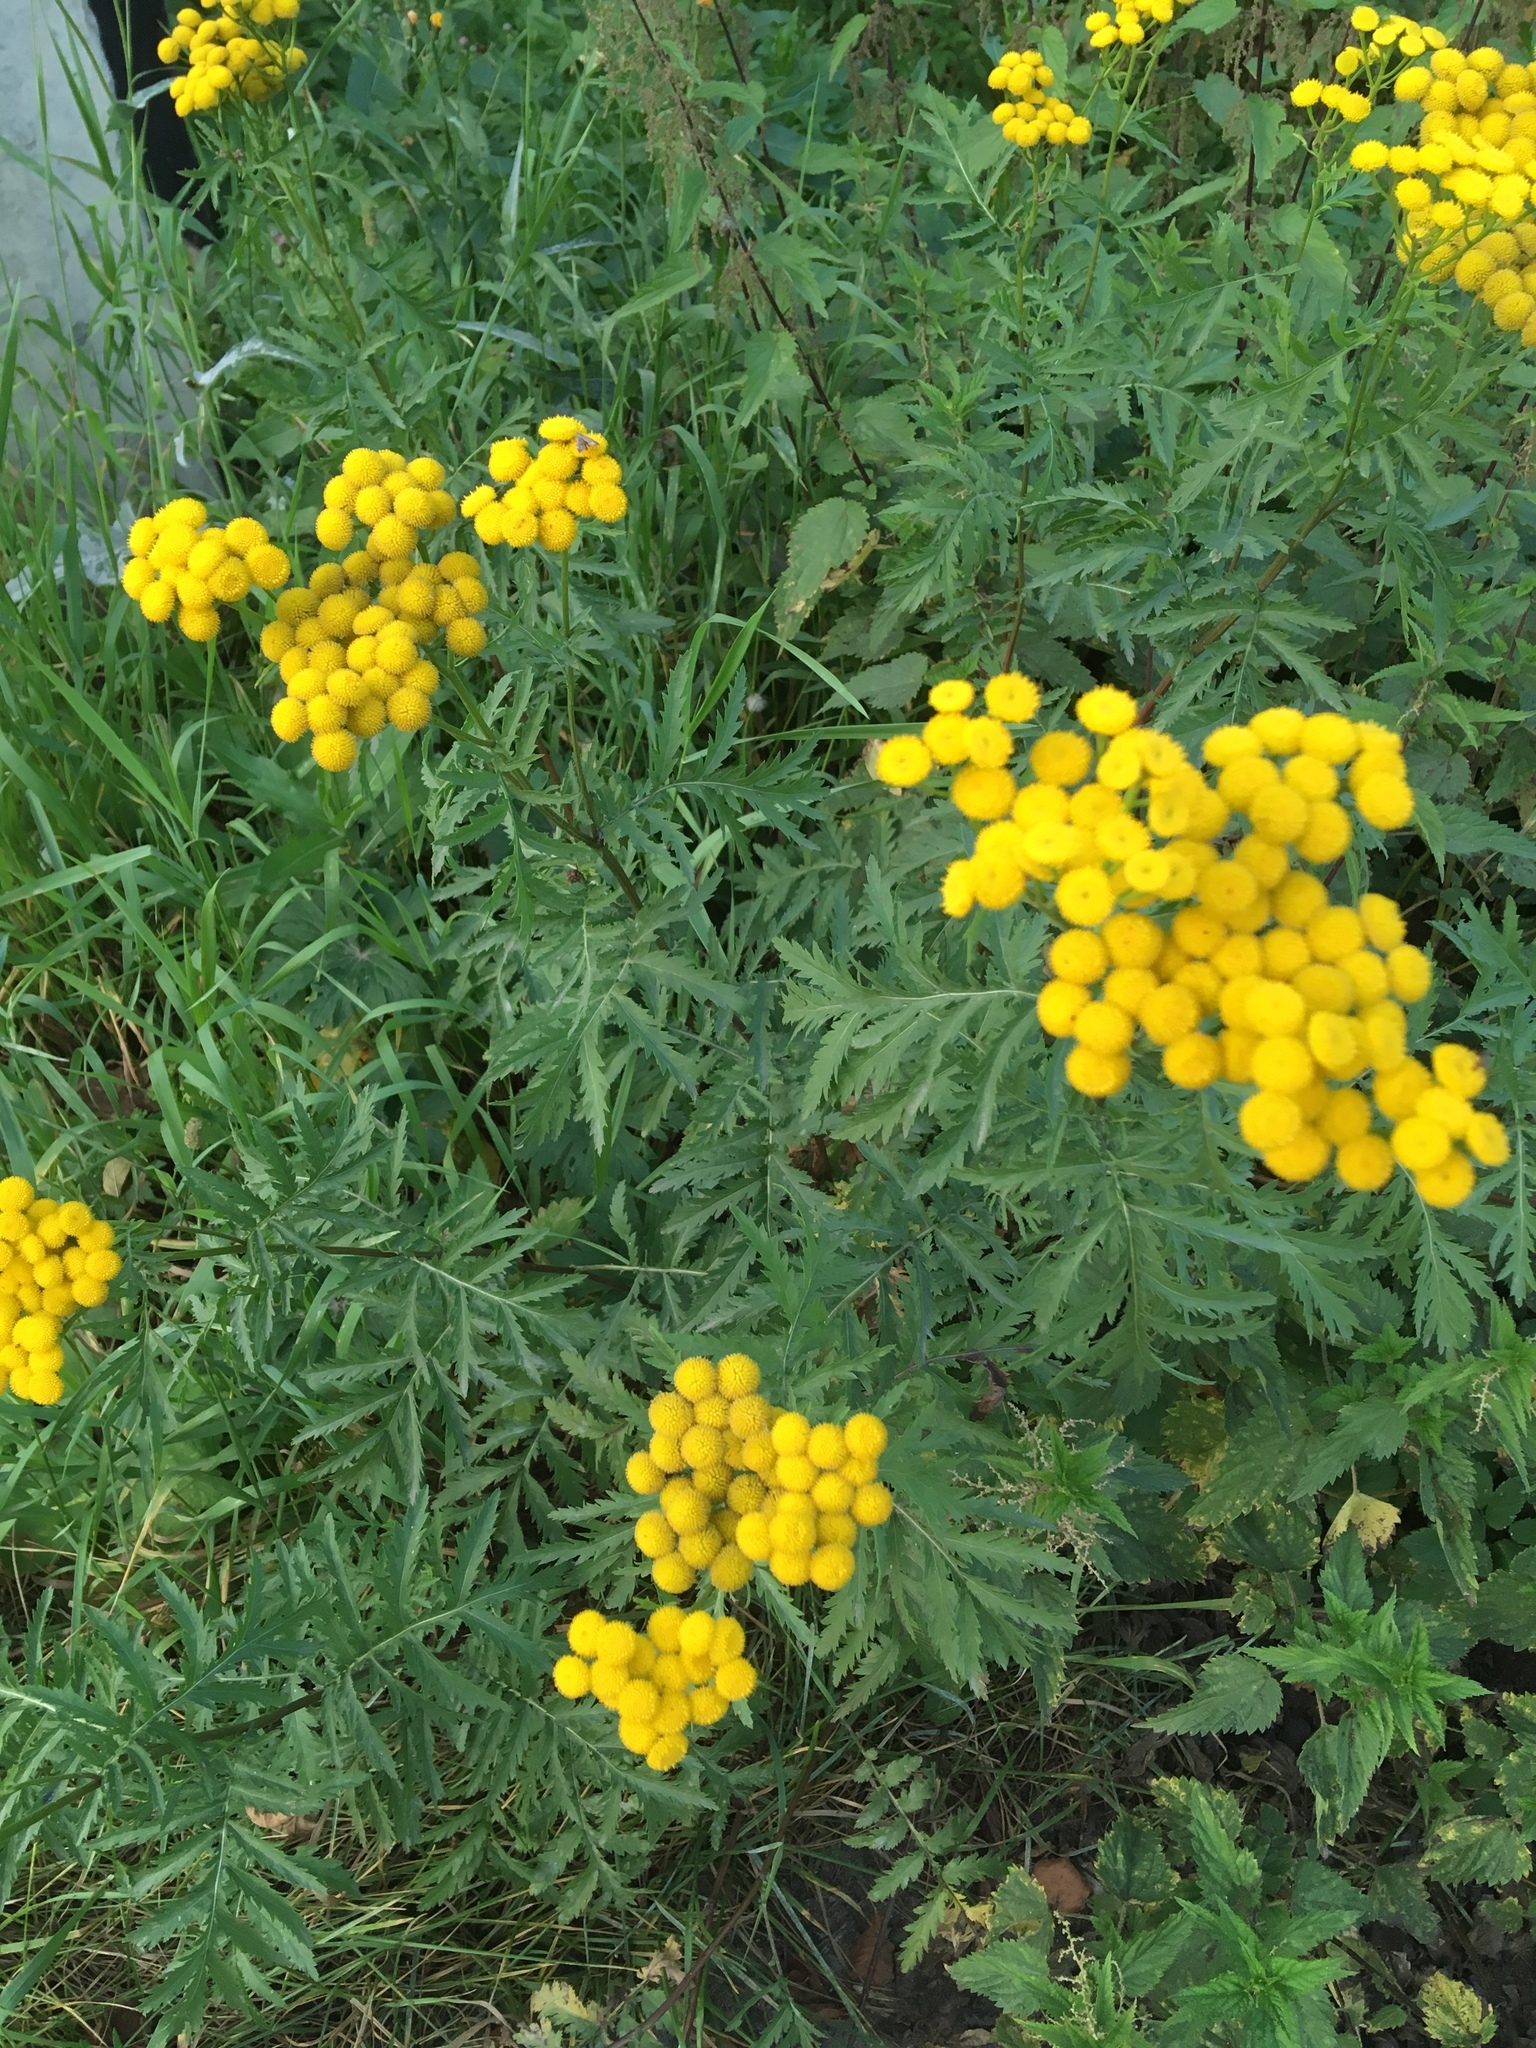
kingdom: Plantae
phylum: Tracheophyta
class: Magnoliopsida
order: Asterales
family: Asteraceae
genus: Tanacetum
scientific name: Tanacetum vulgare
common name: Common tansy
